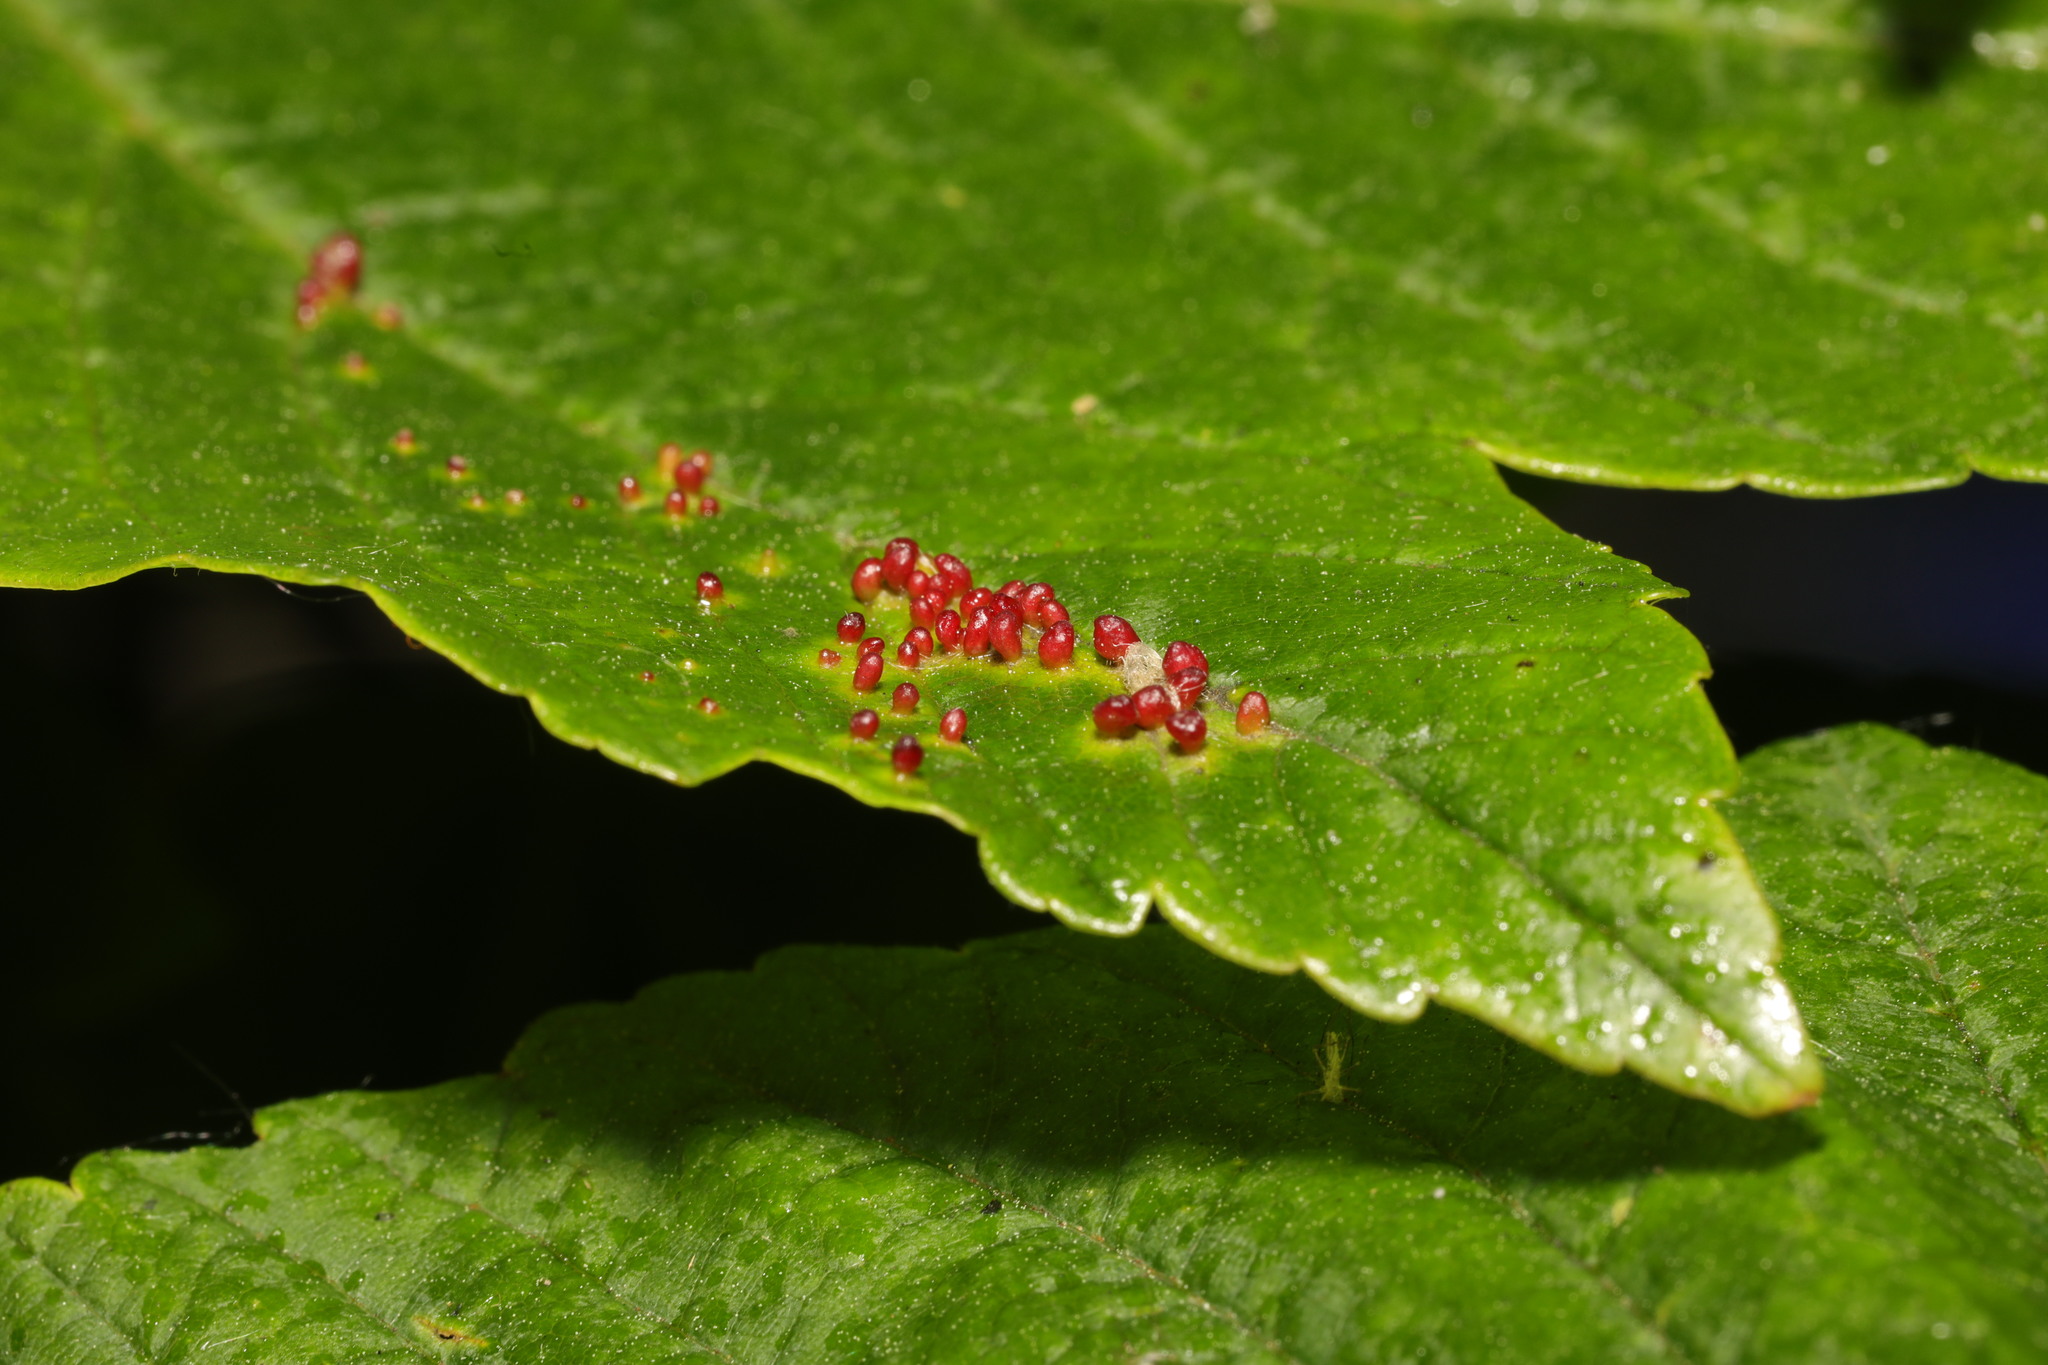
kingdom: Animalia
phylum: Arthropoda
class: Arachnida
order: Trombidiformes
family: Eriophyidae
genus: Aceria
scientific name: Aceria cephaloneus
